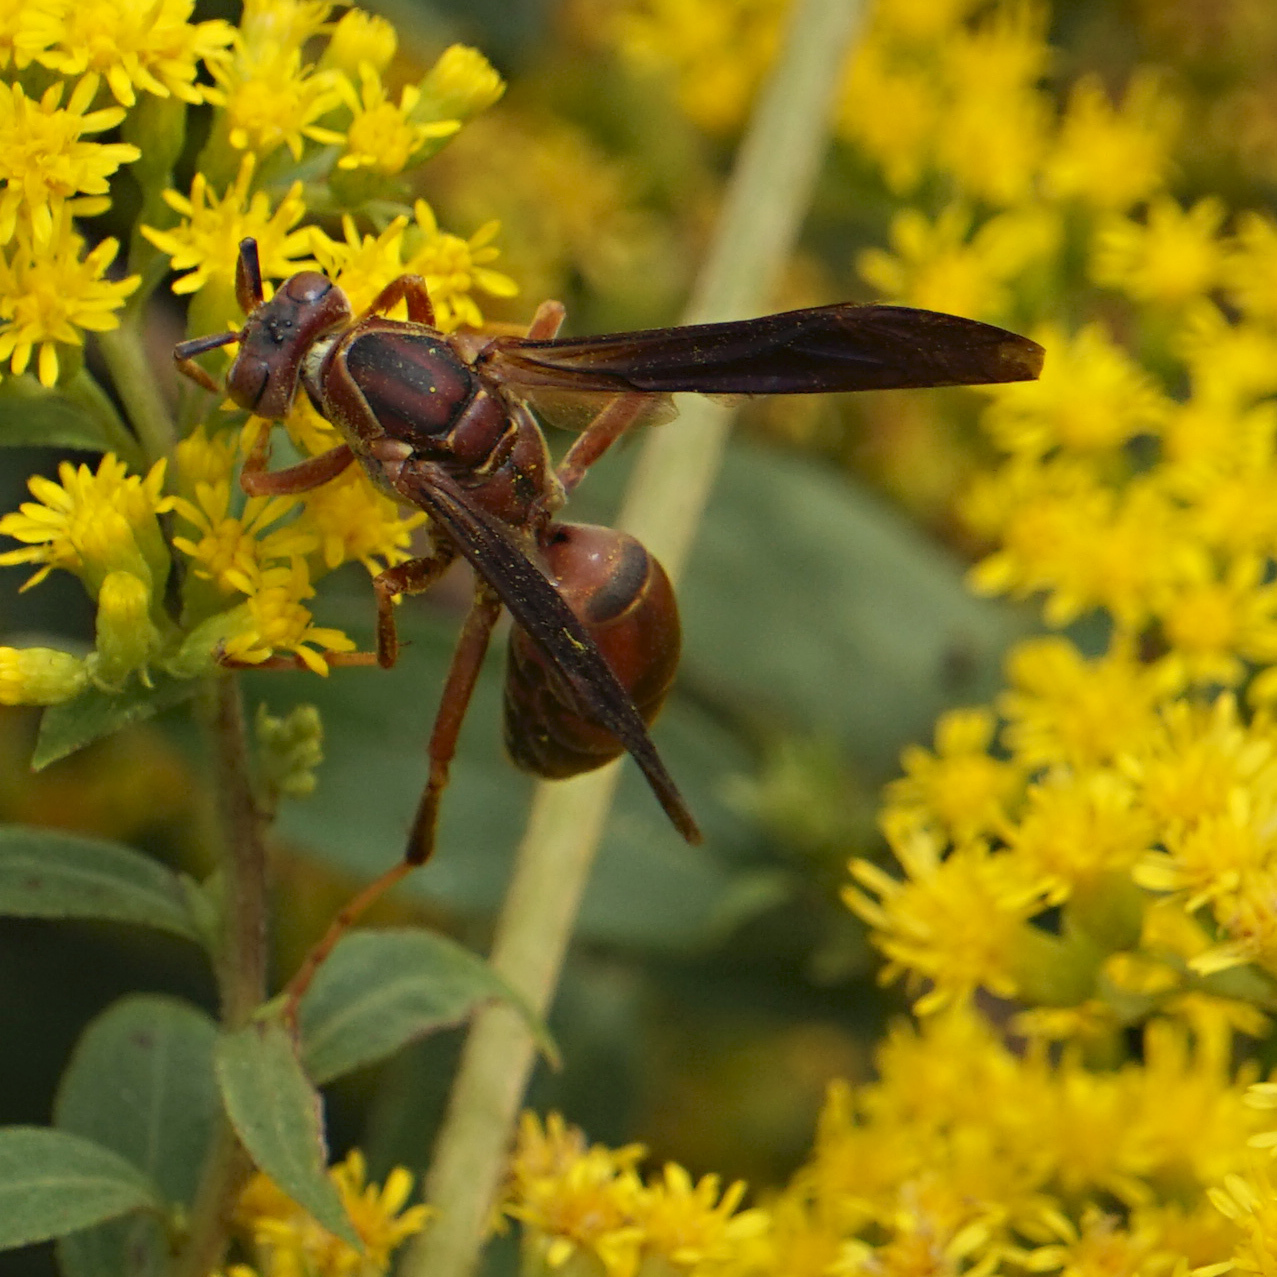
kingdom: Animalia
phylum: Arthropoda
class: Insecta
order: Hymenoptera
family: Eumenidae
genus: Polistes
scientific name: Polistes fuscatus
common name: Dark paper wasp
